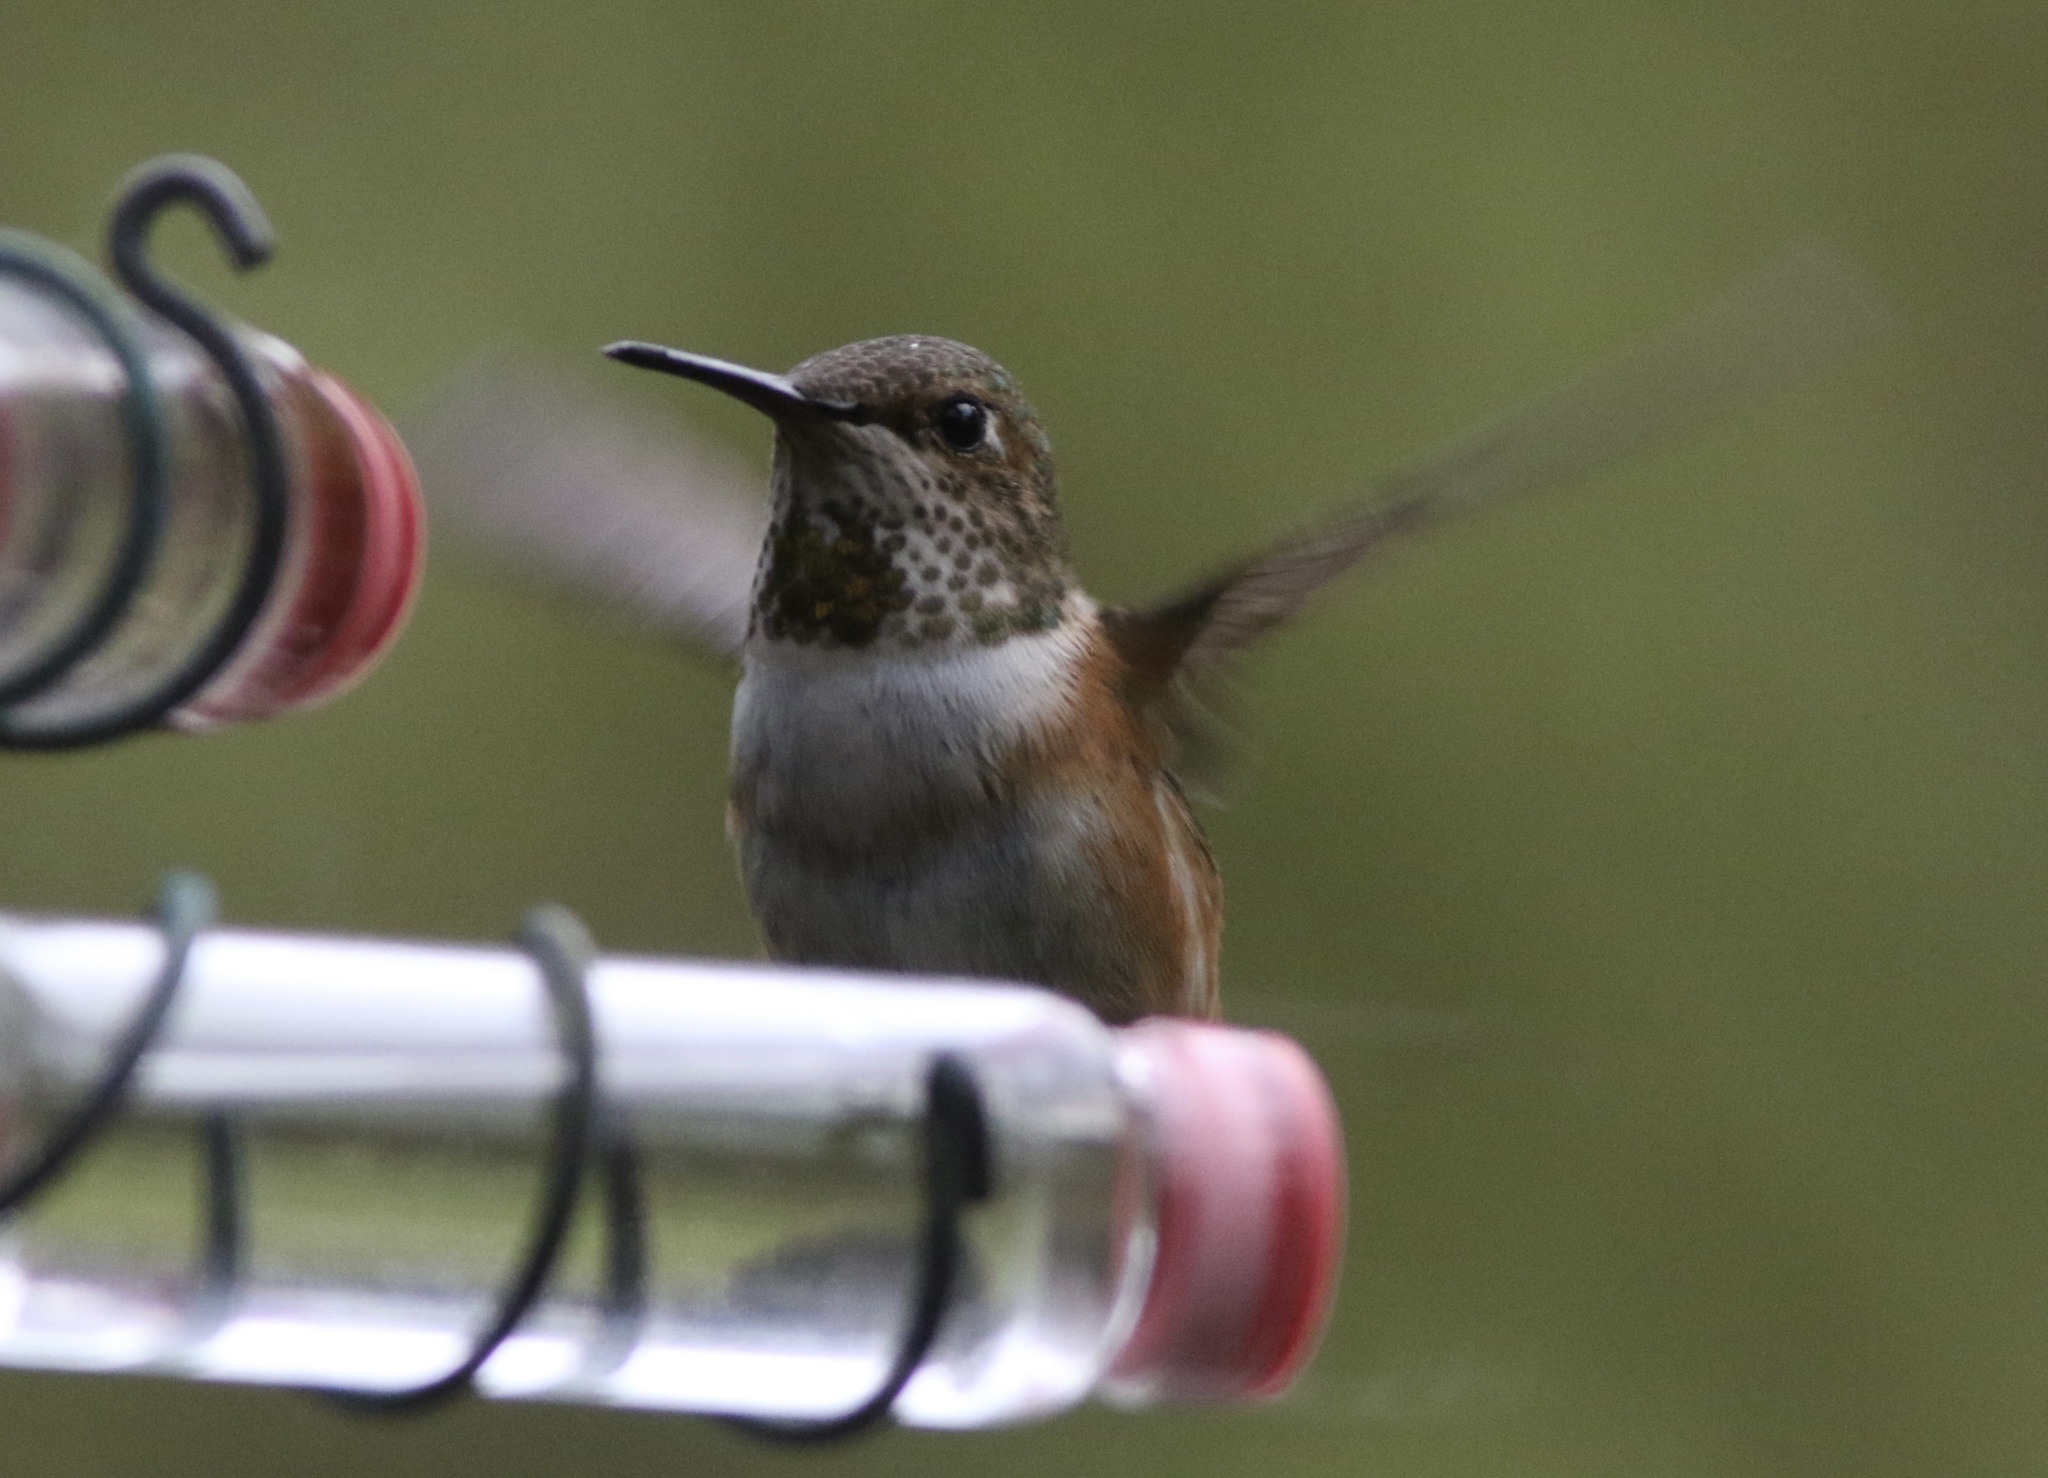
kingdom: Animalia
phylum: Chordata
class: Aves
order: Apodiformes
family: Trochilidae
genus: Selasphorus
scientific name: Selasphorus
